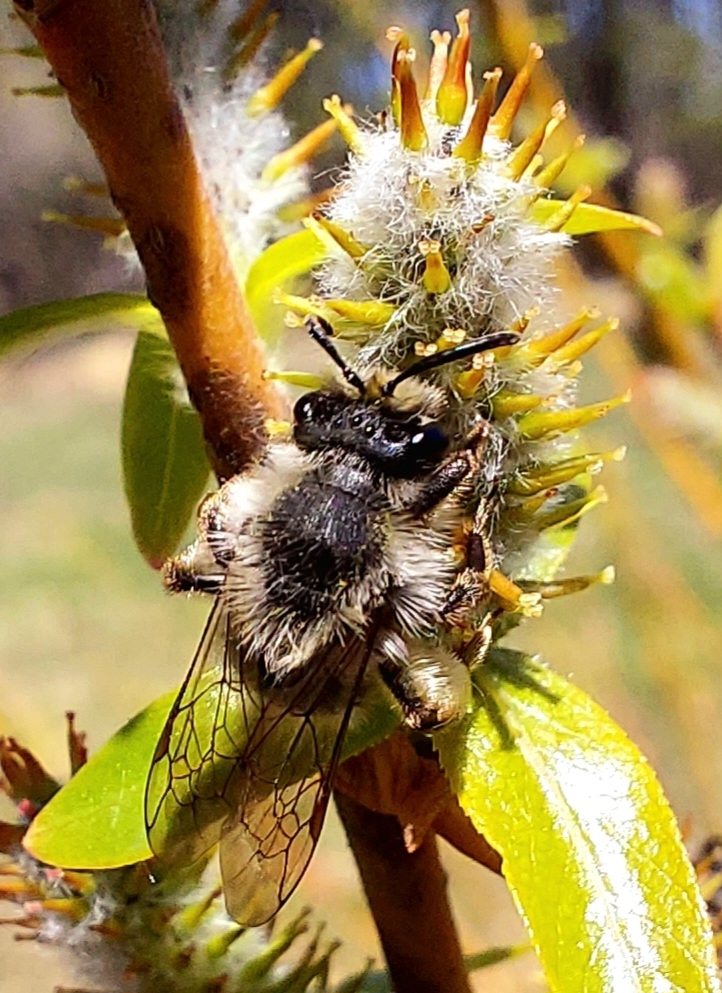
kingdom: Animalia
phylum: Arthropoda
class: Insecta
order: Hymenoptera
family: Andrenidae
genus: Andrena
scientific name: Andrena frigida
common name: Frigid mining bee
